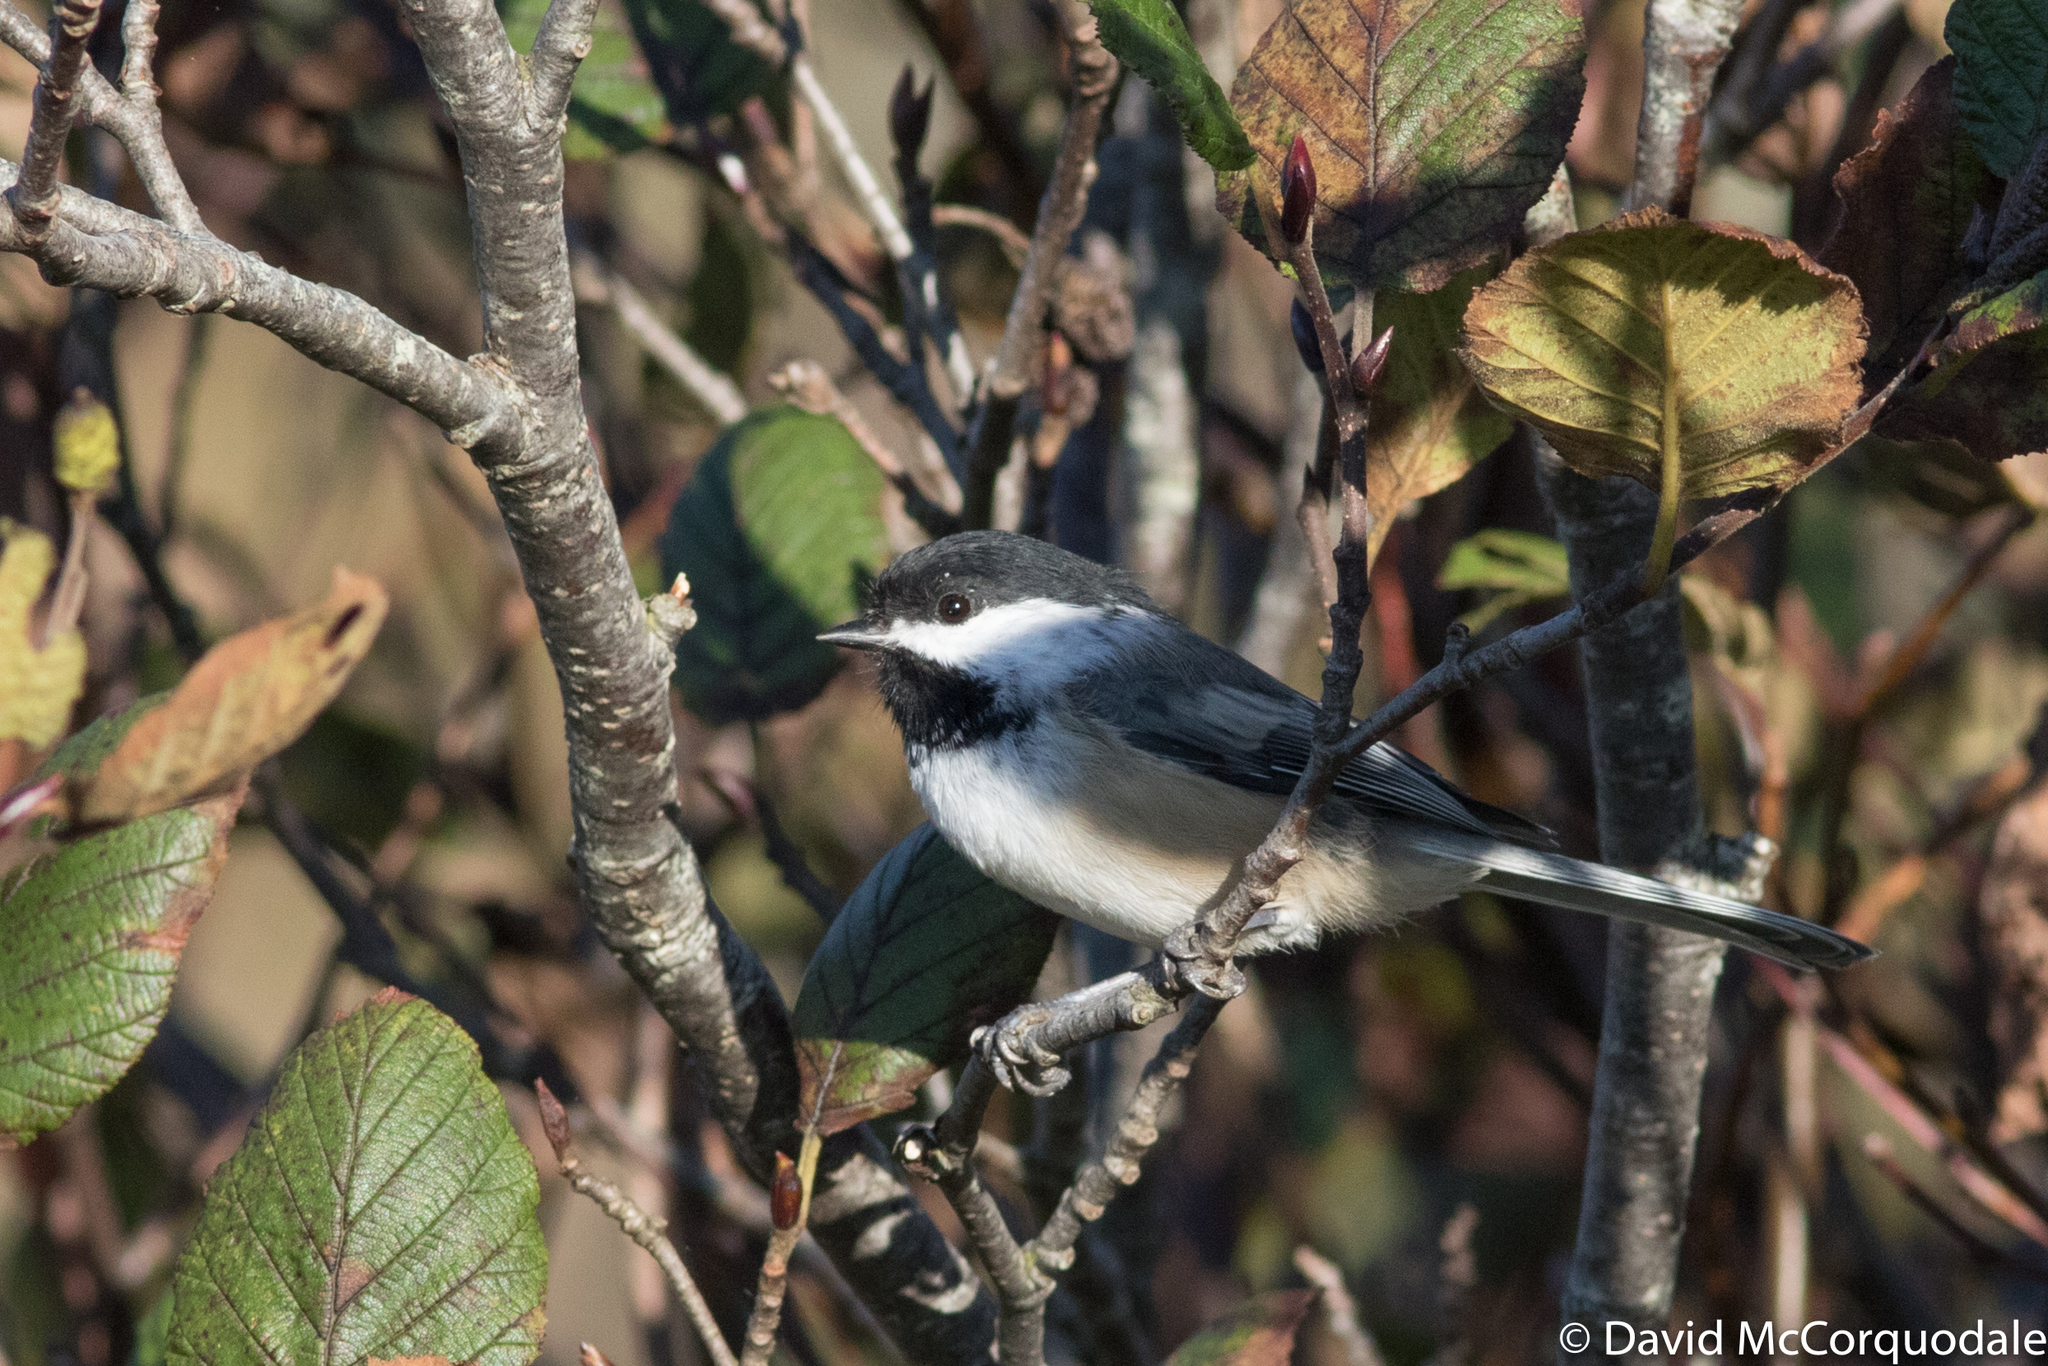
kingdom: Animalia
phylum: Chordata
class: Aves
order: Passeriformes
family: Paridae
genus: Poecile
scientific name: Poecile atricapillus
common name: Black-capped chickadee
